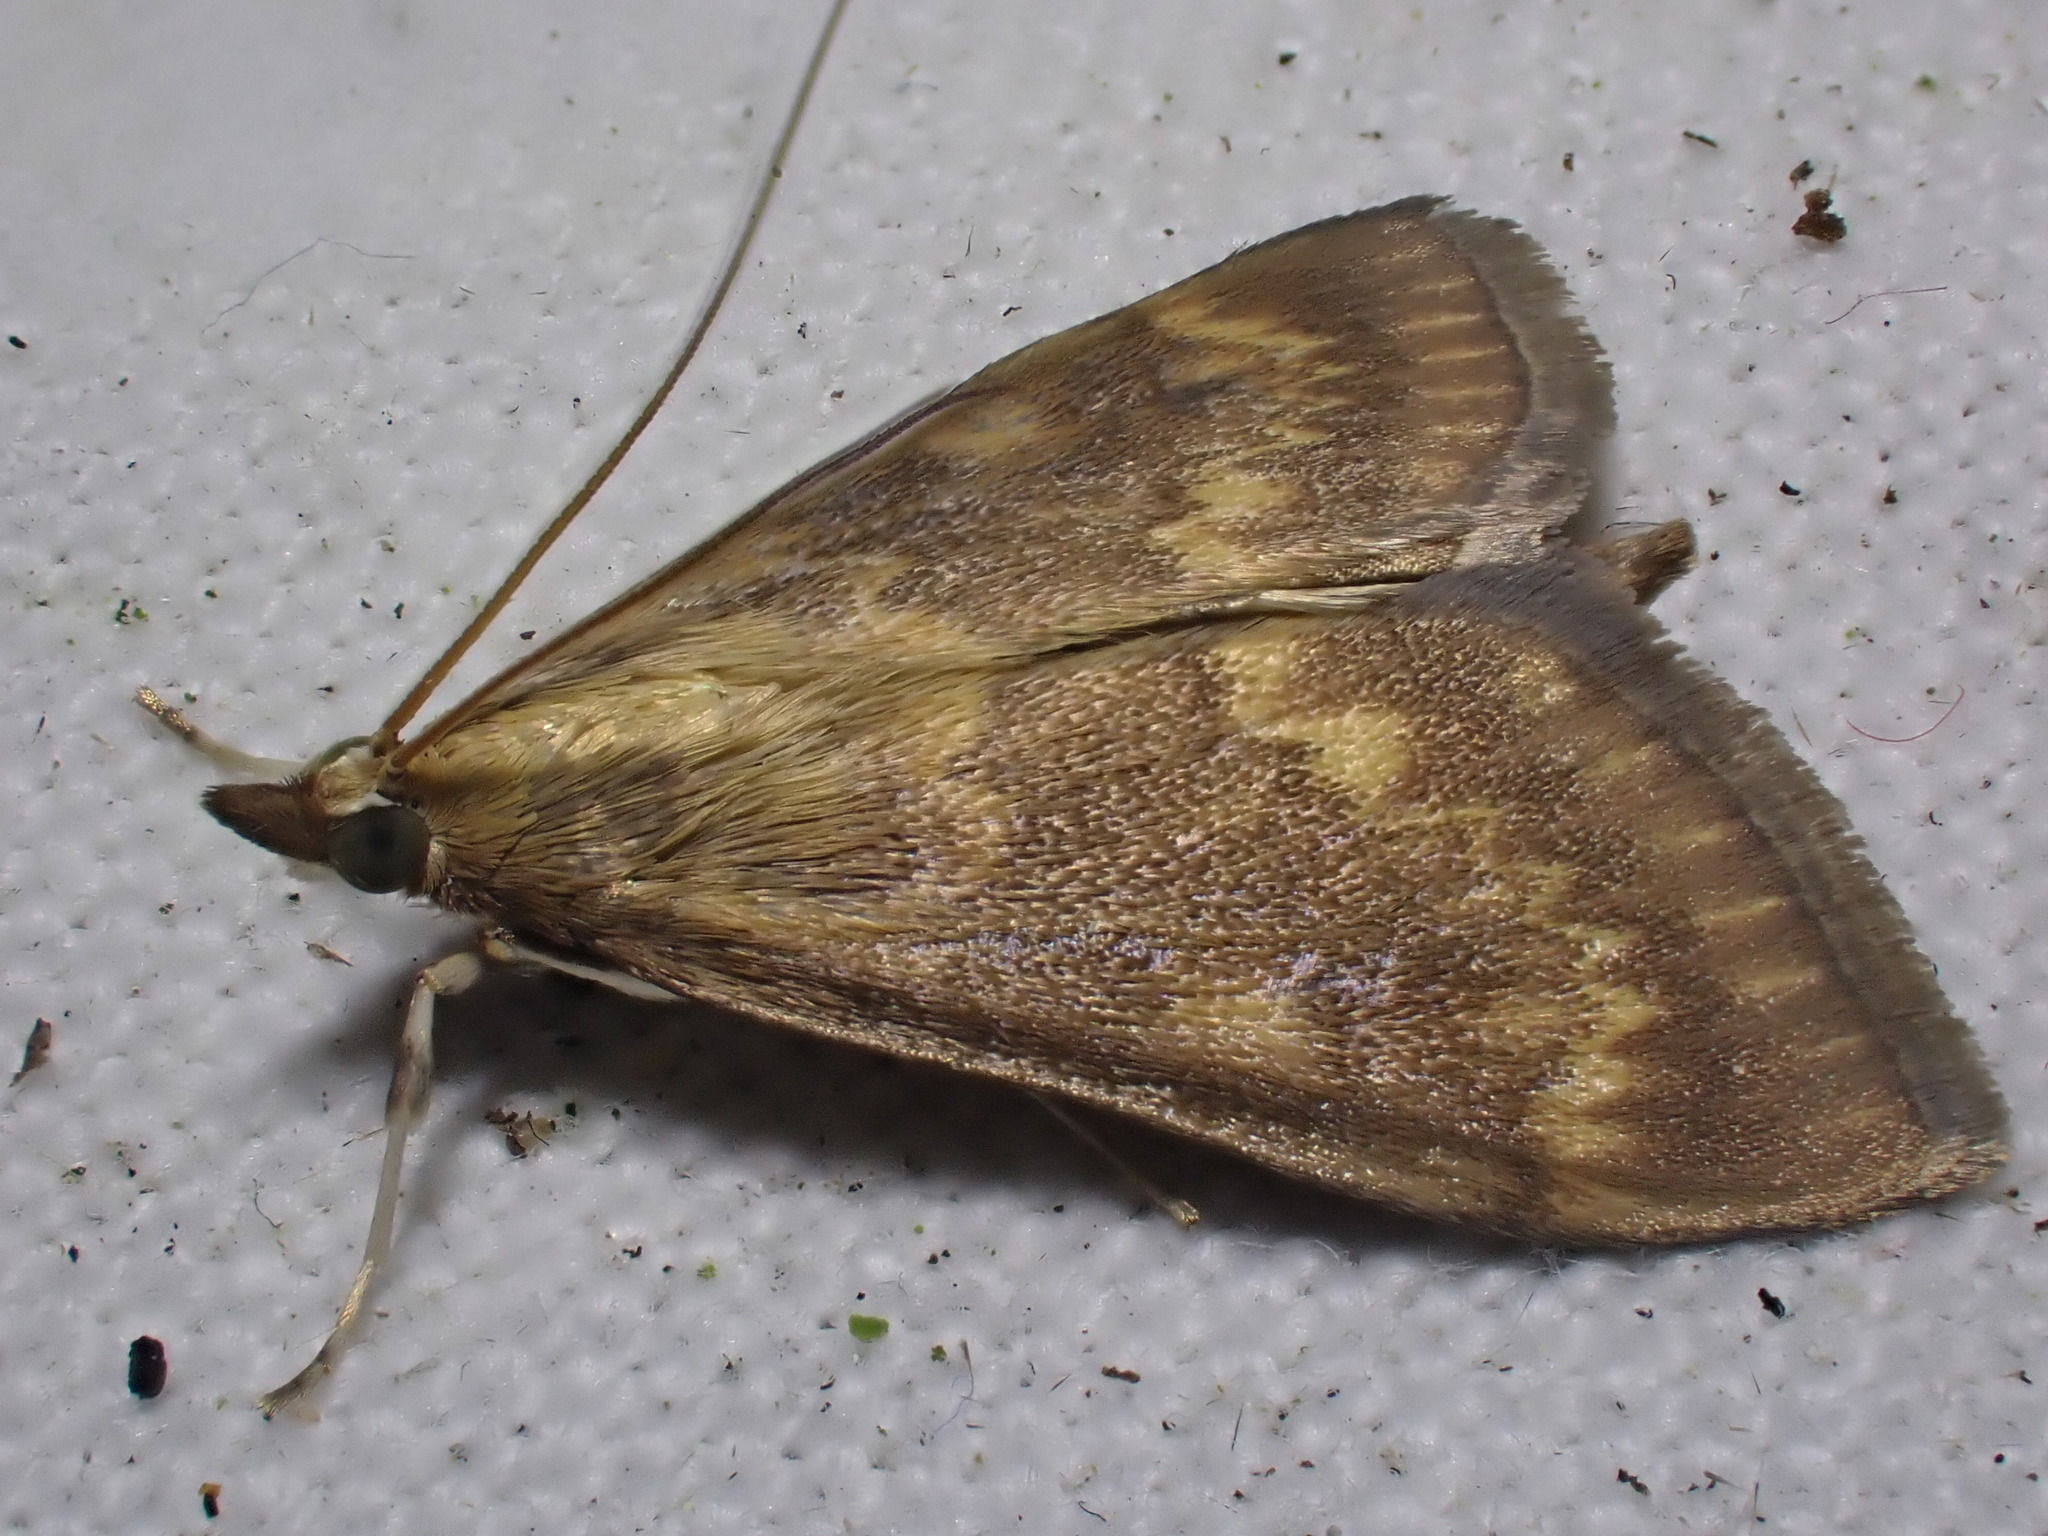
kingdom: Animalia
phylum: Arthropoda
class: Insecta
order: Lepidoptera
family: Crambidae
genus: Ostrinia
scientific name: Ostrinia nubilalis
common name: European corn borer
